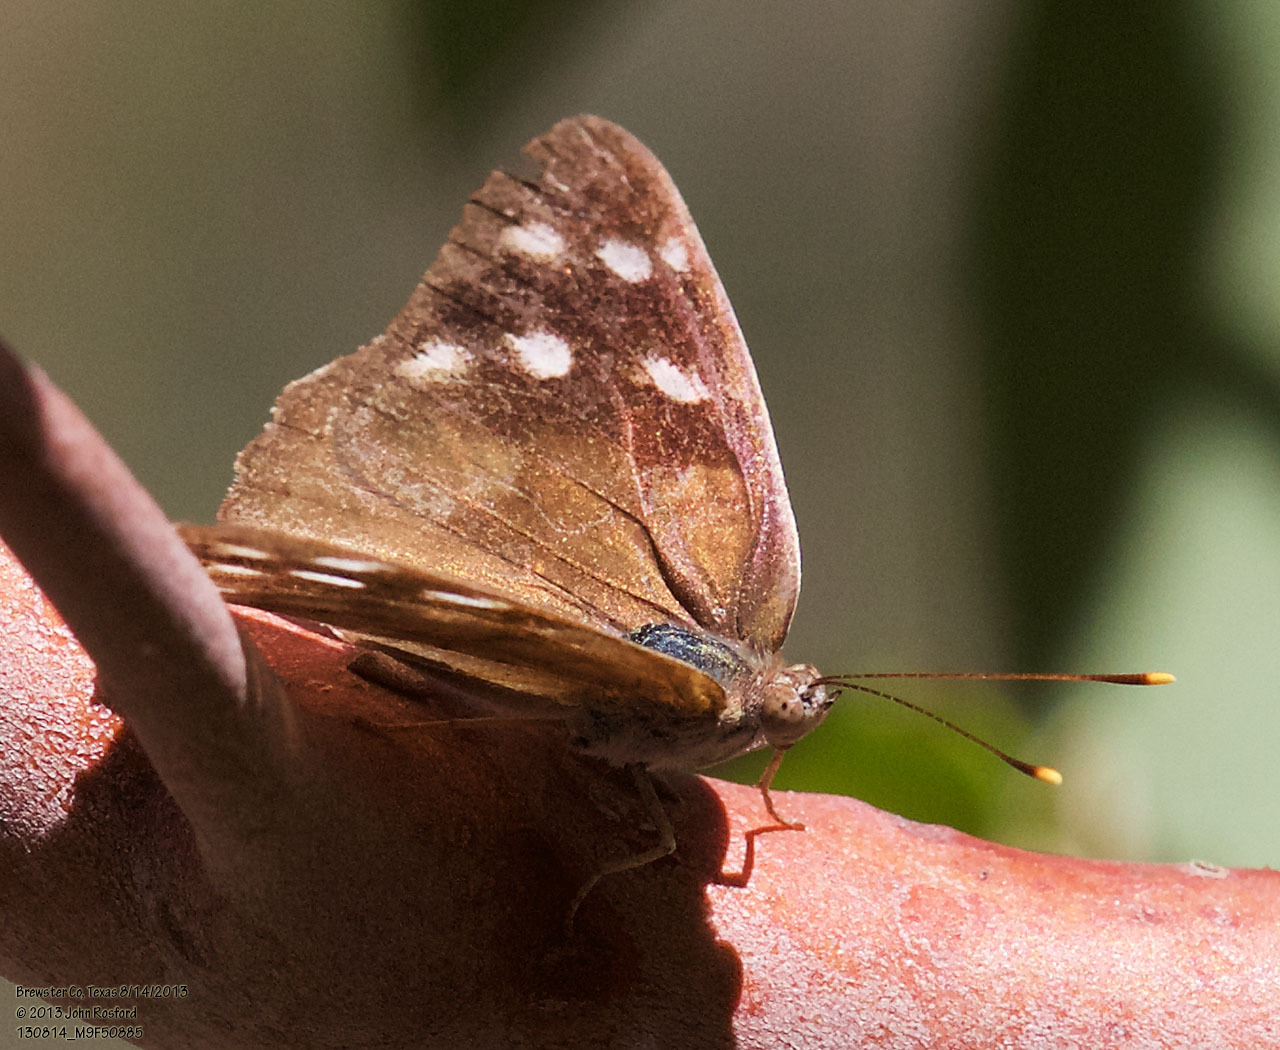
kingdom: Animalia
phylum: Arthropoda
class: Insecta
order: Lepidoptera
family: Nymphalidae
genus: Eunica
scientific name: Eunica monima
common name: Dingy purplewing
